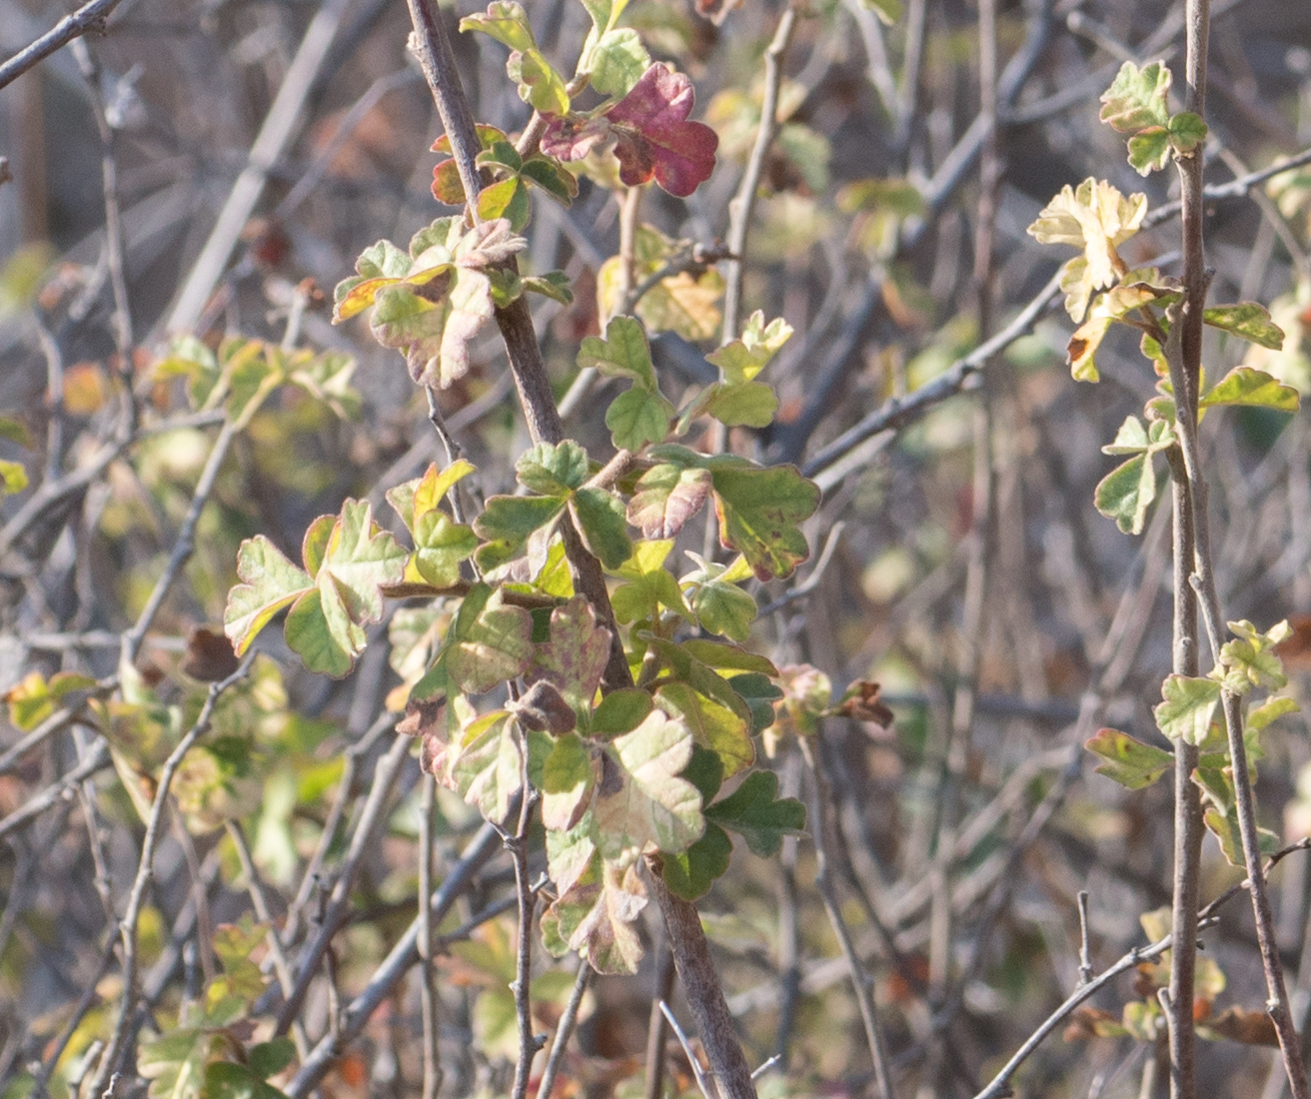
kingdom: Plantae
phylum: Tracheophyta
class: Magnoliopsida
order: Sapindales
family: Anacardiaceae
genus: Rhus
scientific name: Rhus aromatica
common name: Aromatic sumac
